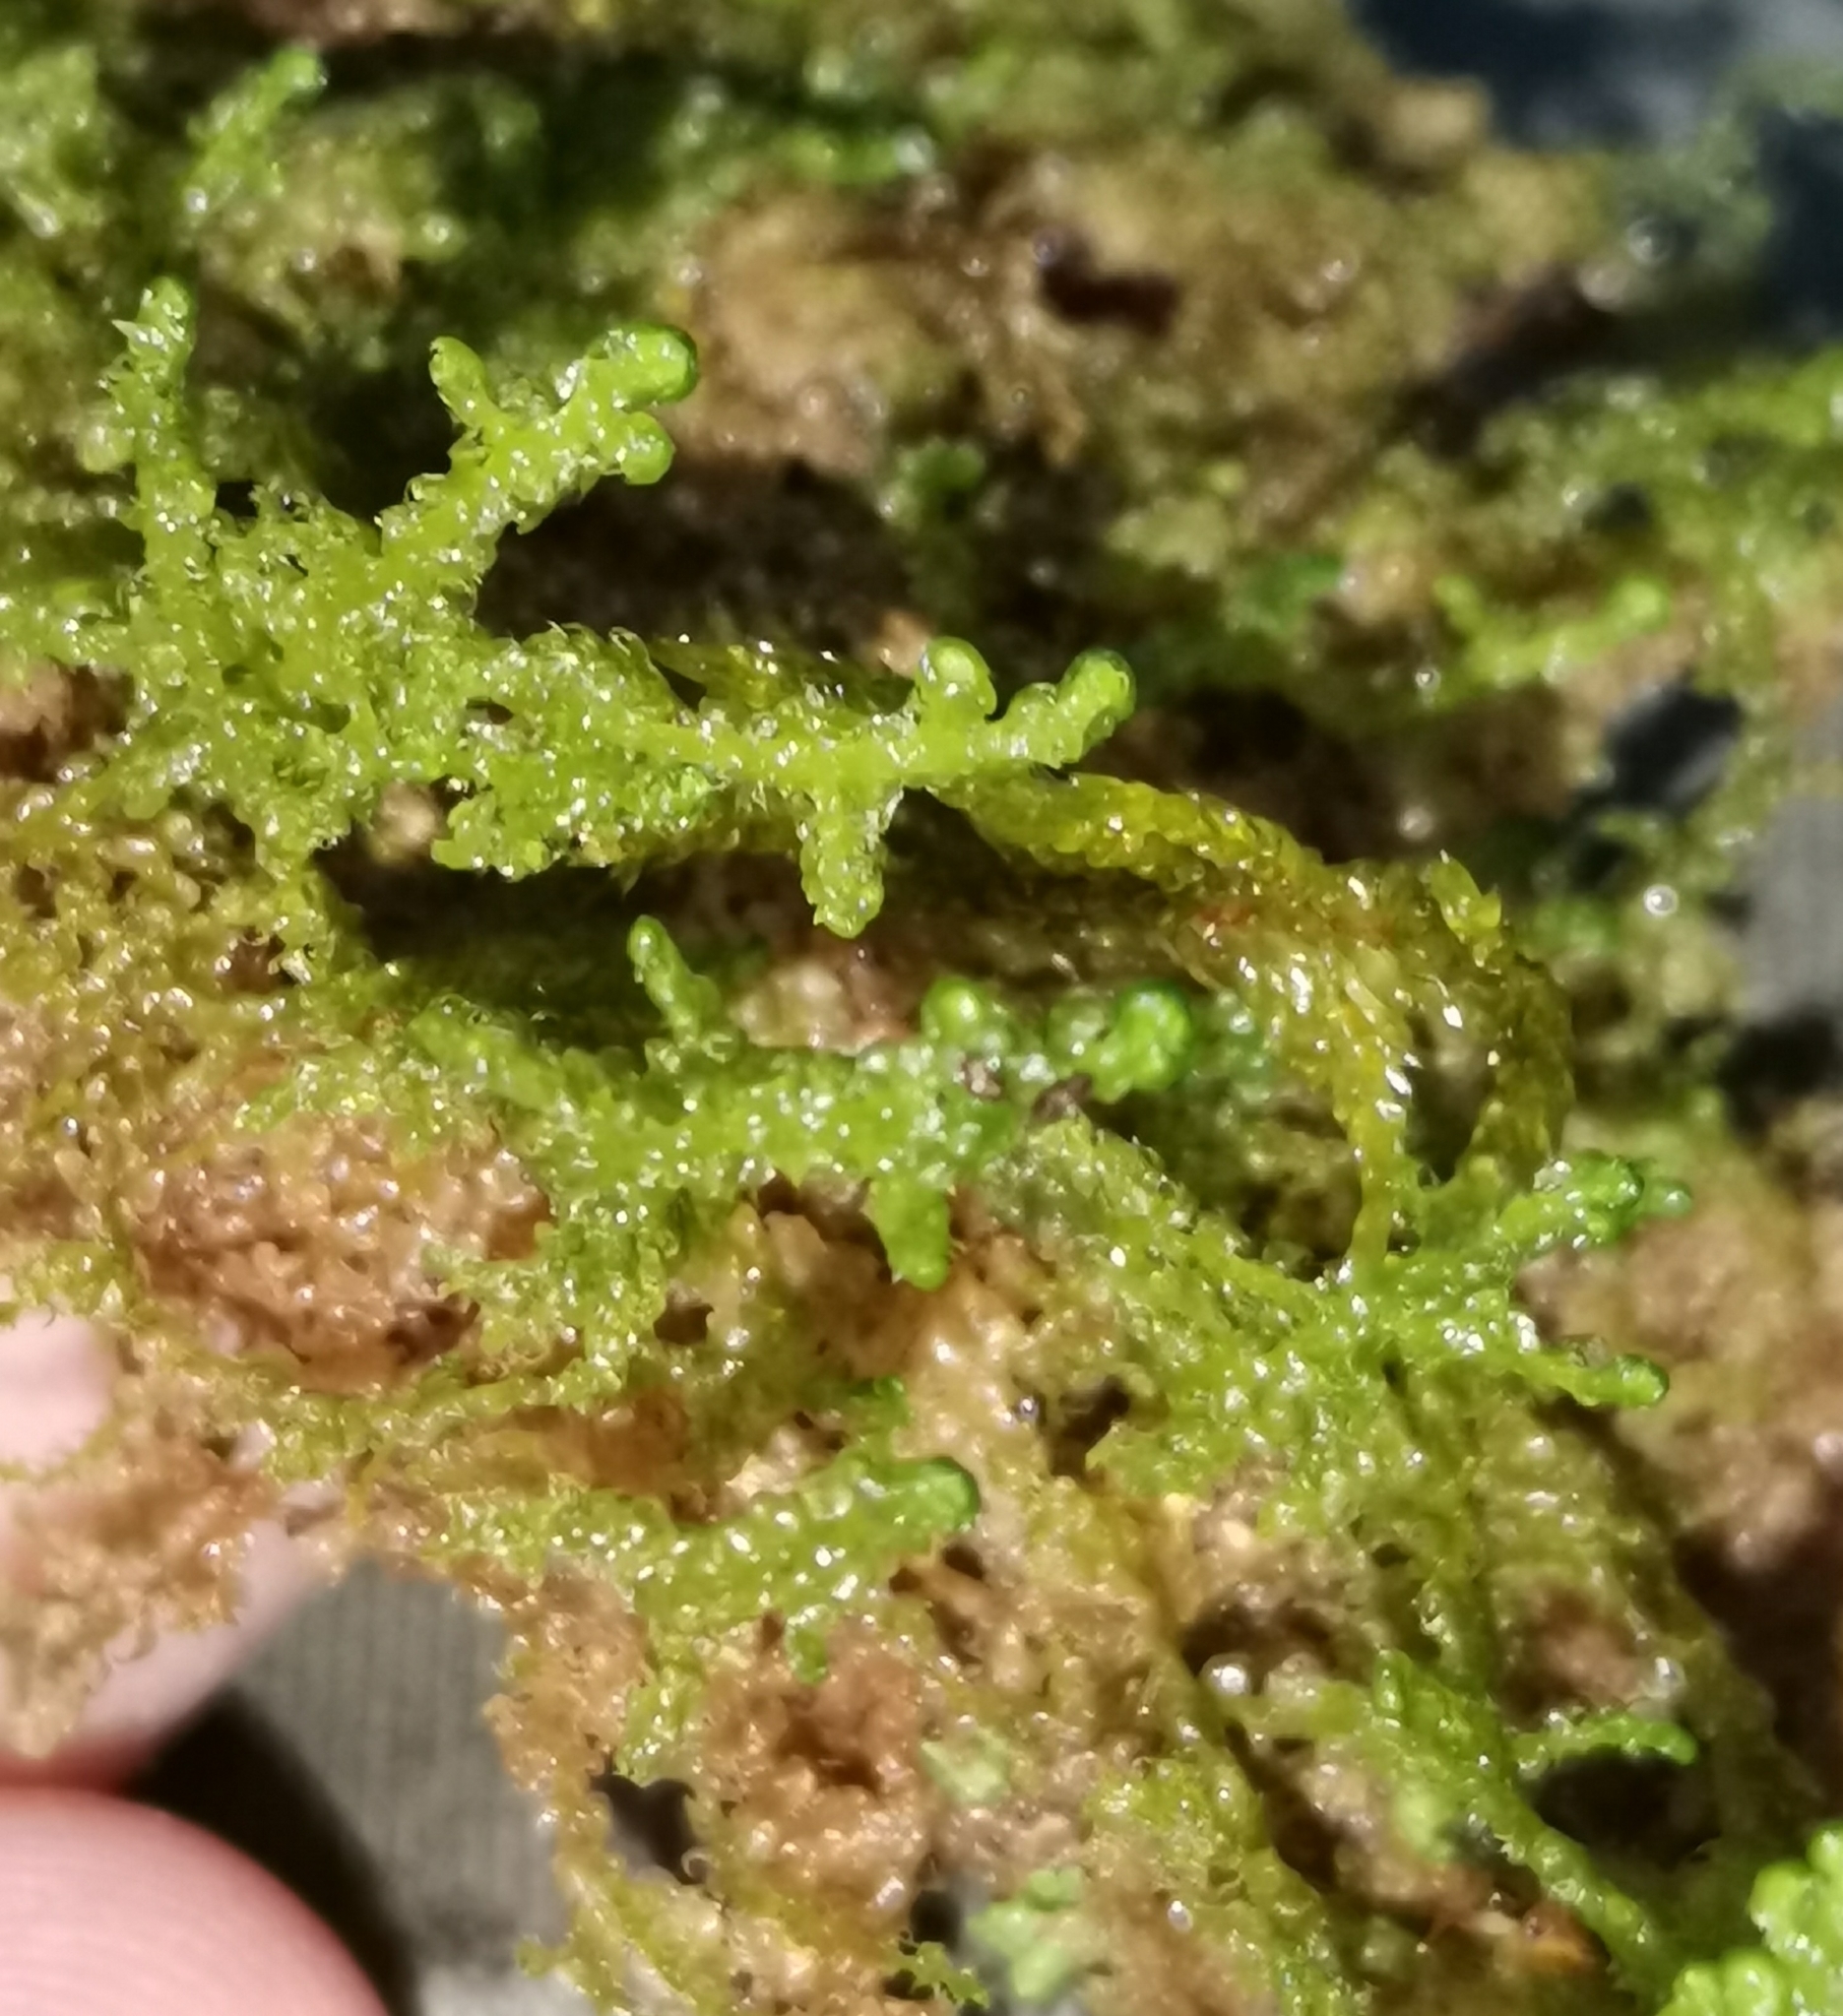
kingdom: Plantae
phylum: Marchantiophyta
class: Jungermanniopsida
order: Ptilidiales
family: Ptilidiaceae
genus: Ptilidium
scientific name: Ptilidium ciliare
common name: Ciliate fringewort
